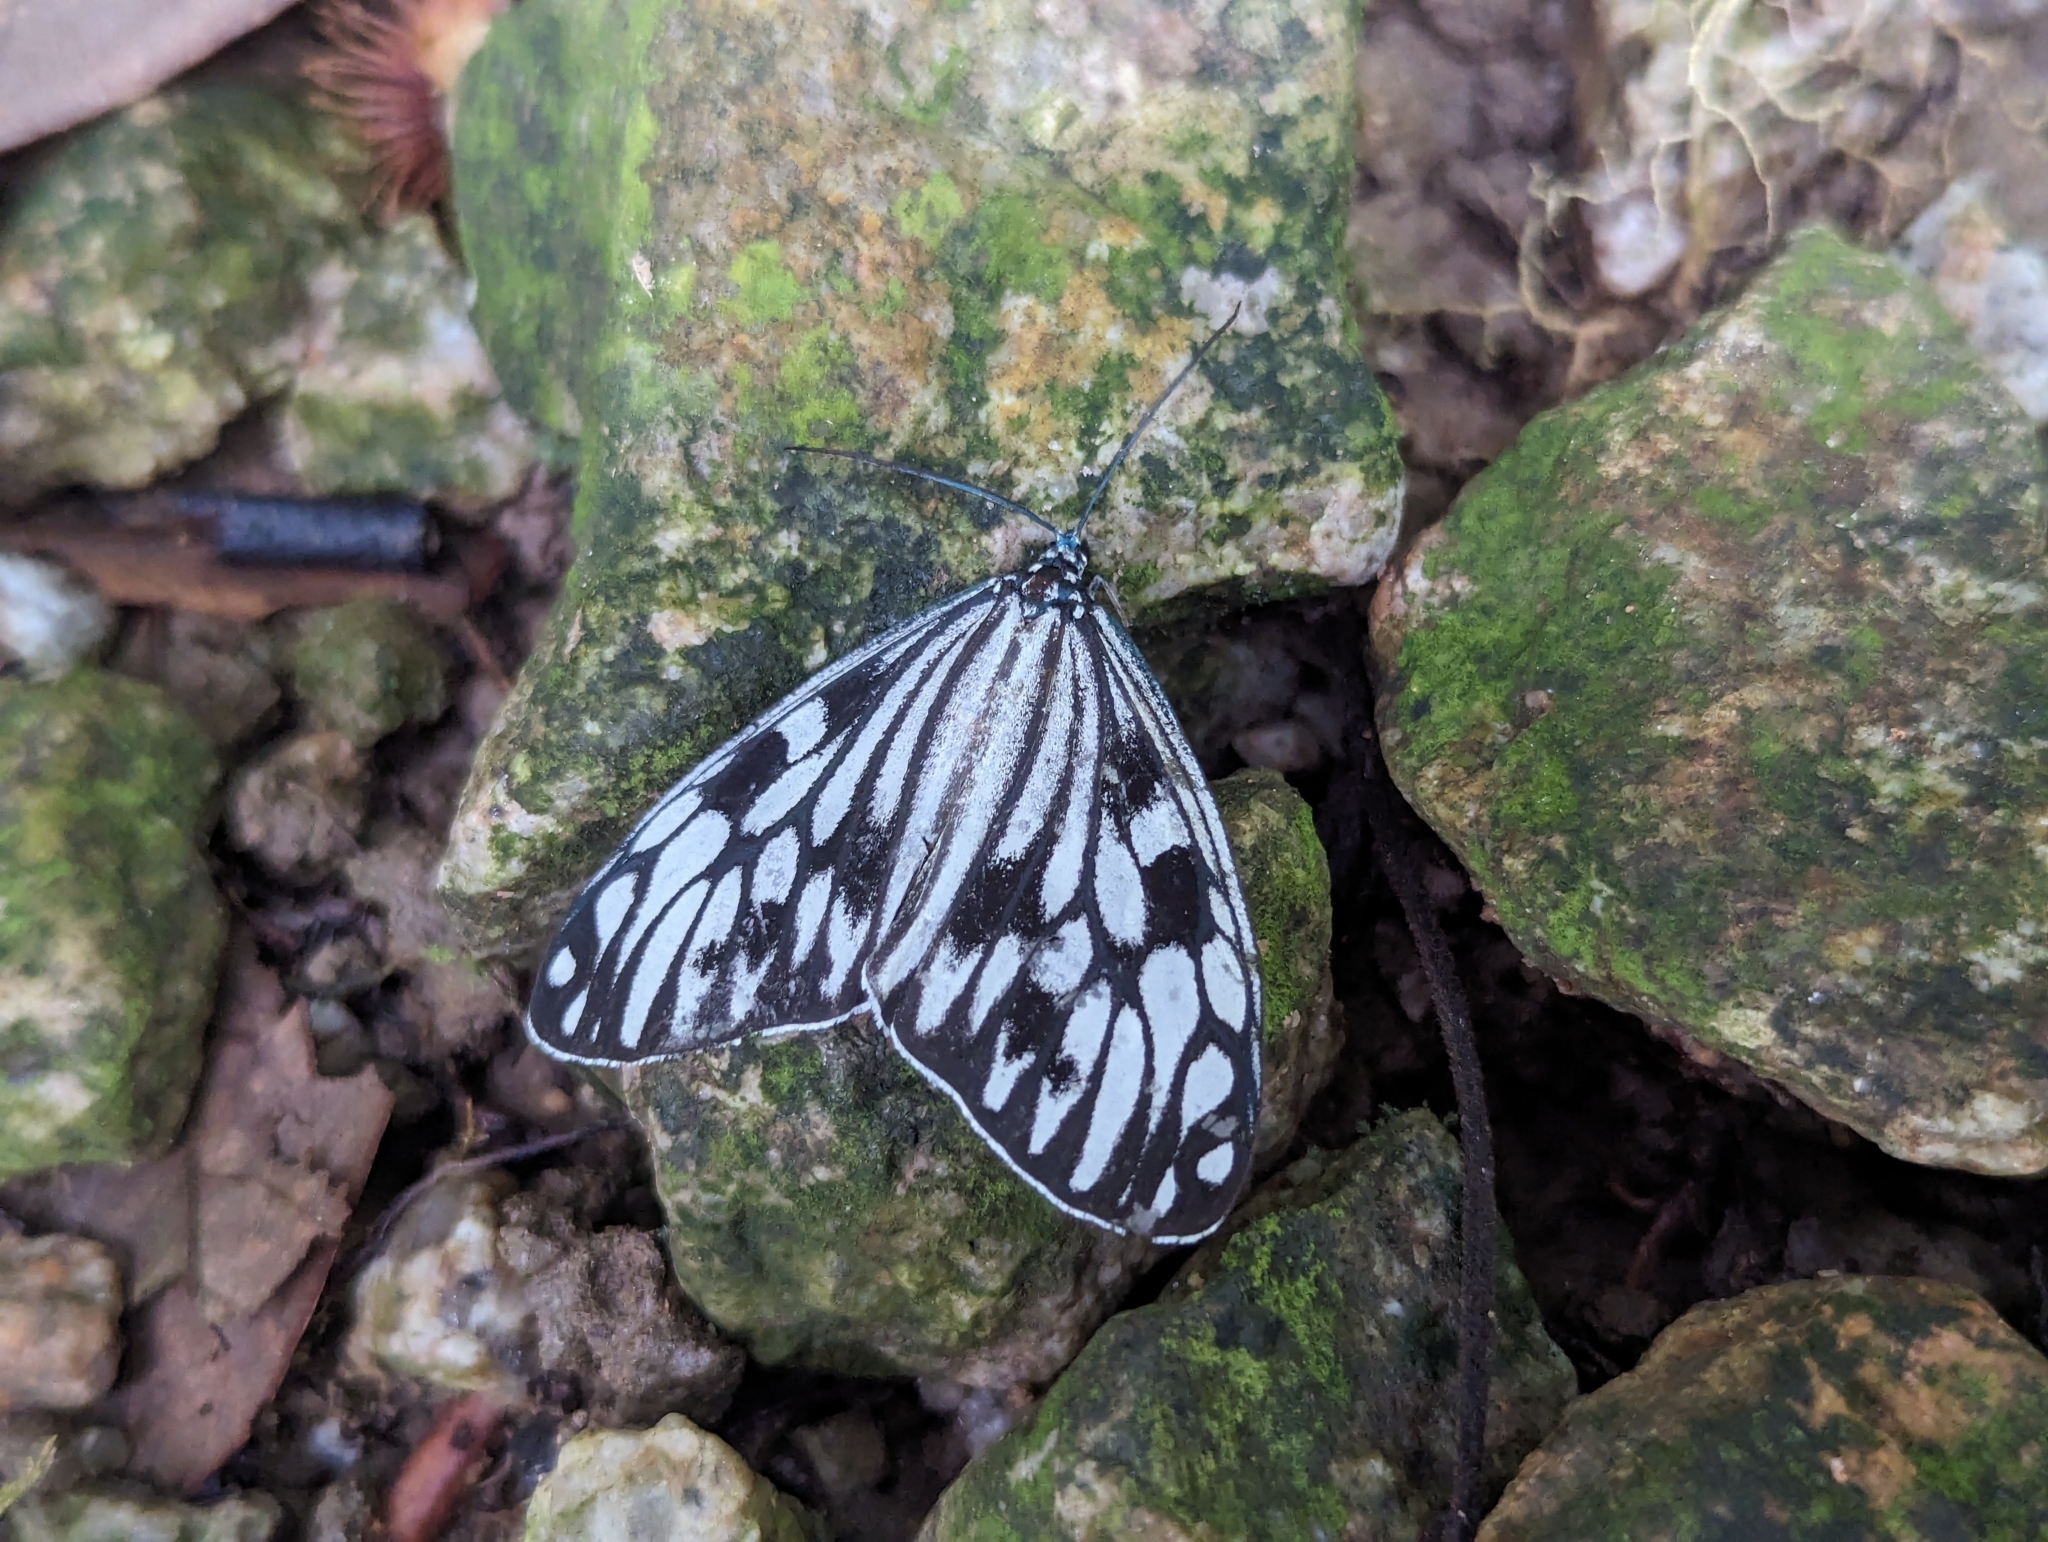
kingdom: Animalia
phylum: Arthropoda
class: Insecta
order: Lepidoptera
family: Zygaenidae
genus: Cyclosia
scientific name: Cyclosia pieridoides
